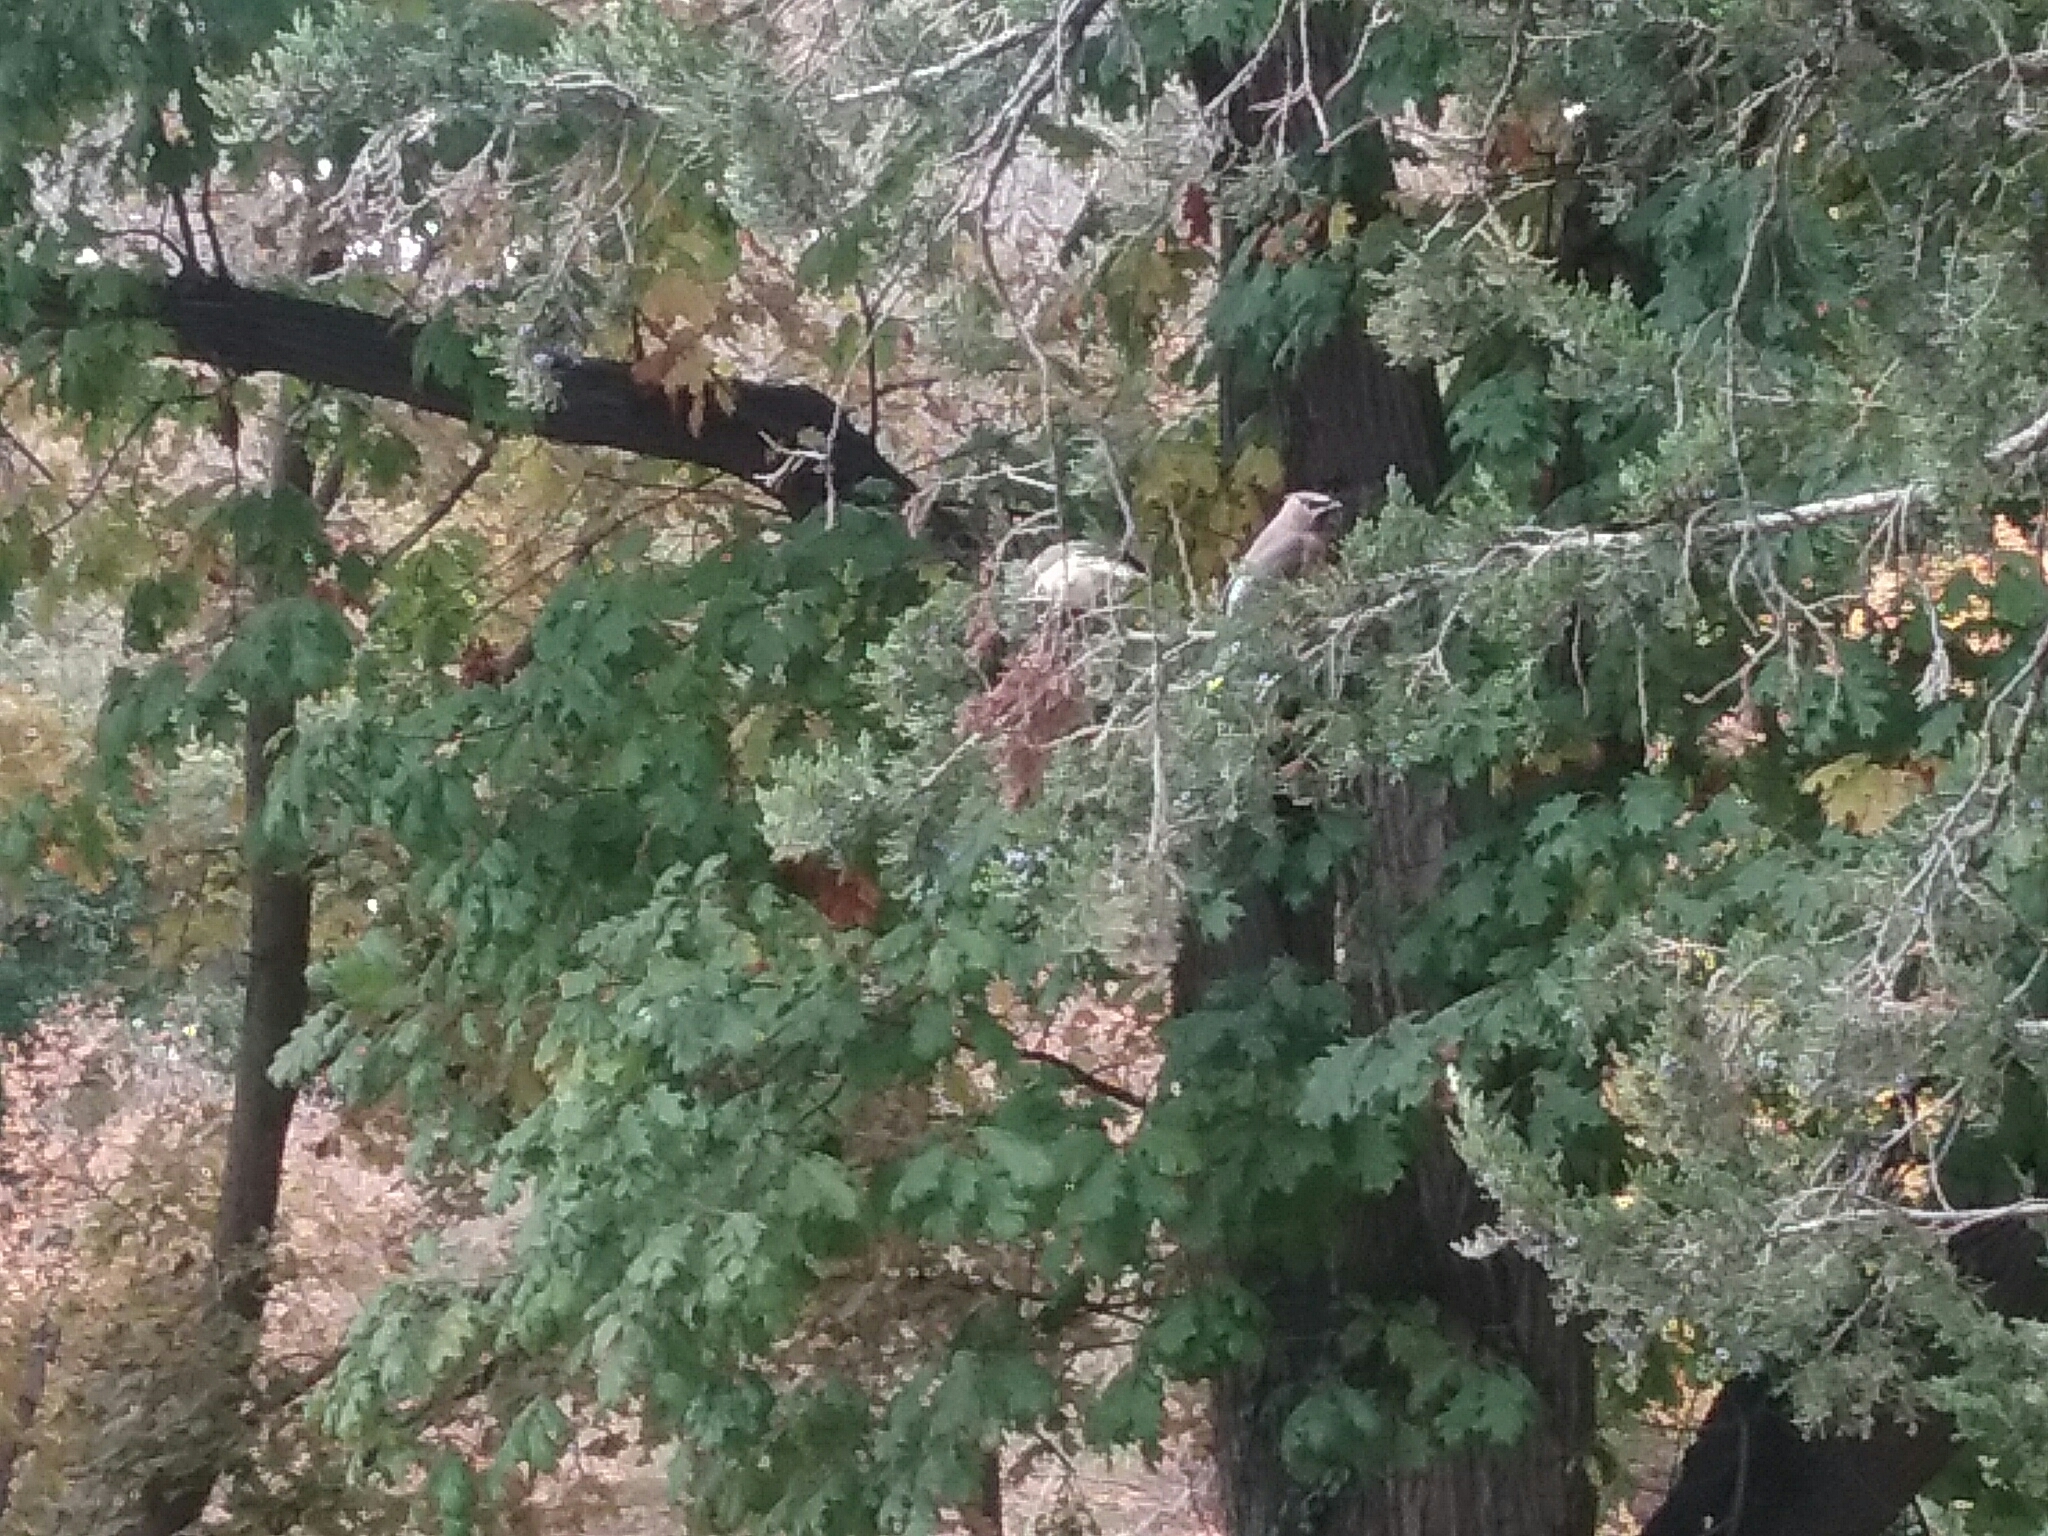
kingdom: Animalia
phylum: Chordata
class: Aves
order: Passeriformes
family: Bombycillidae
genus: Bombycilla
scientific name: Bombycilla cedrorum
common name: Cedar waxwing
